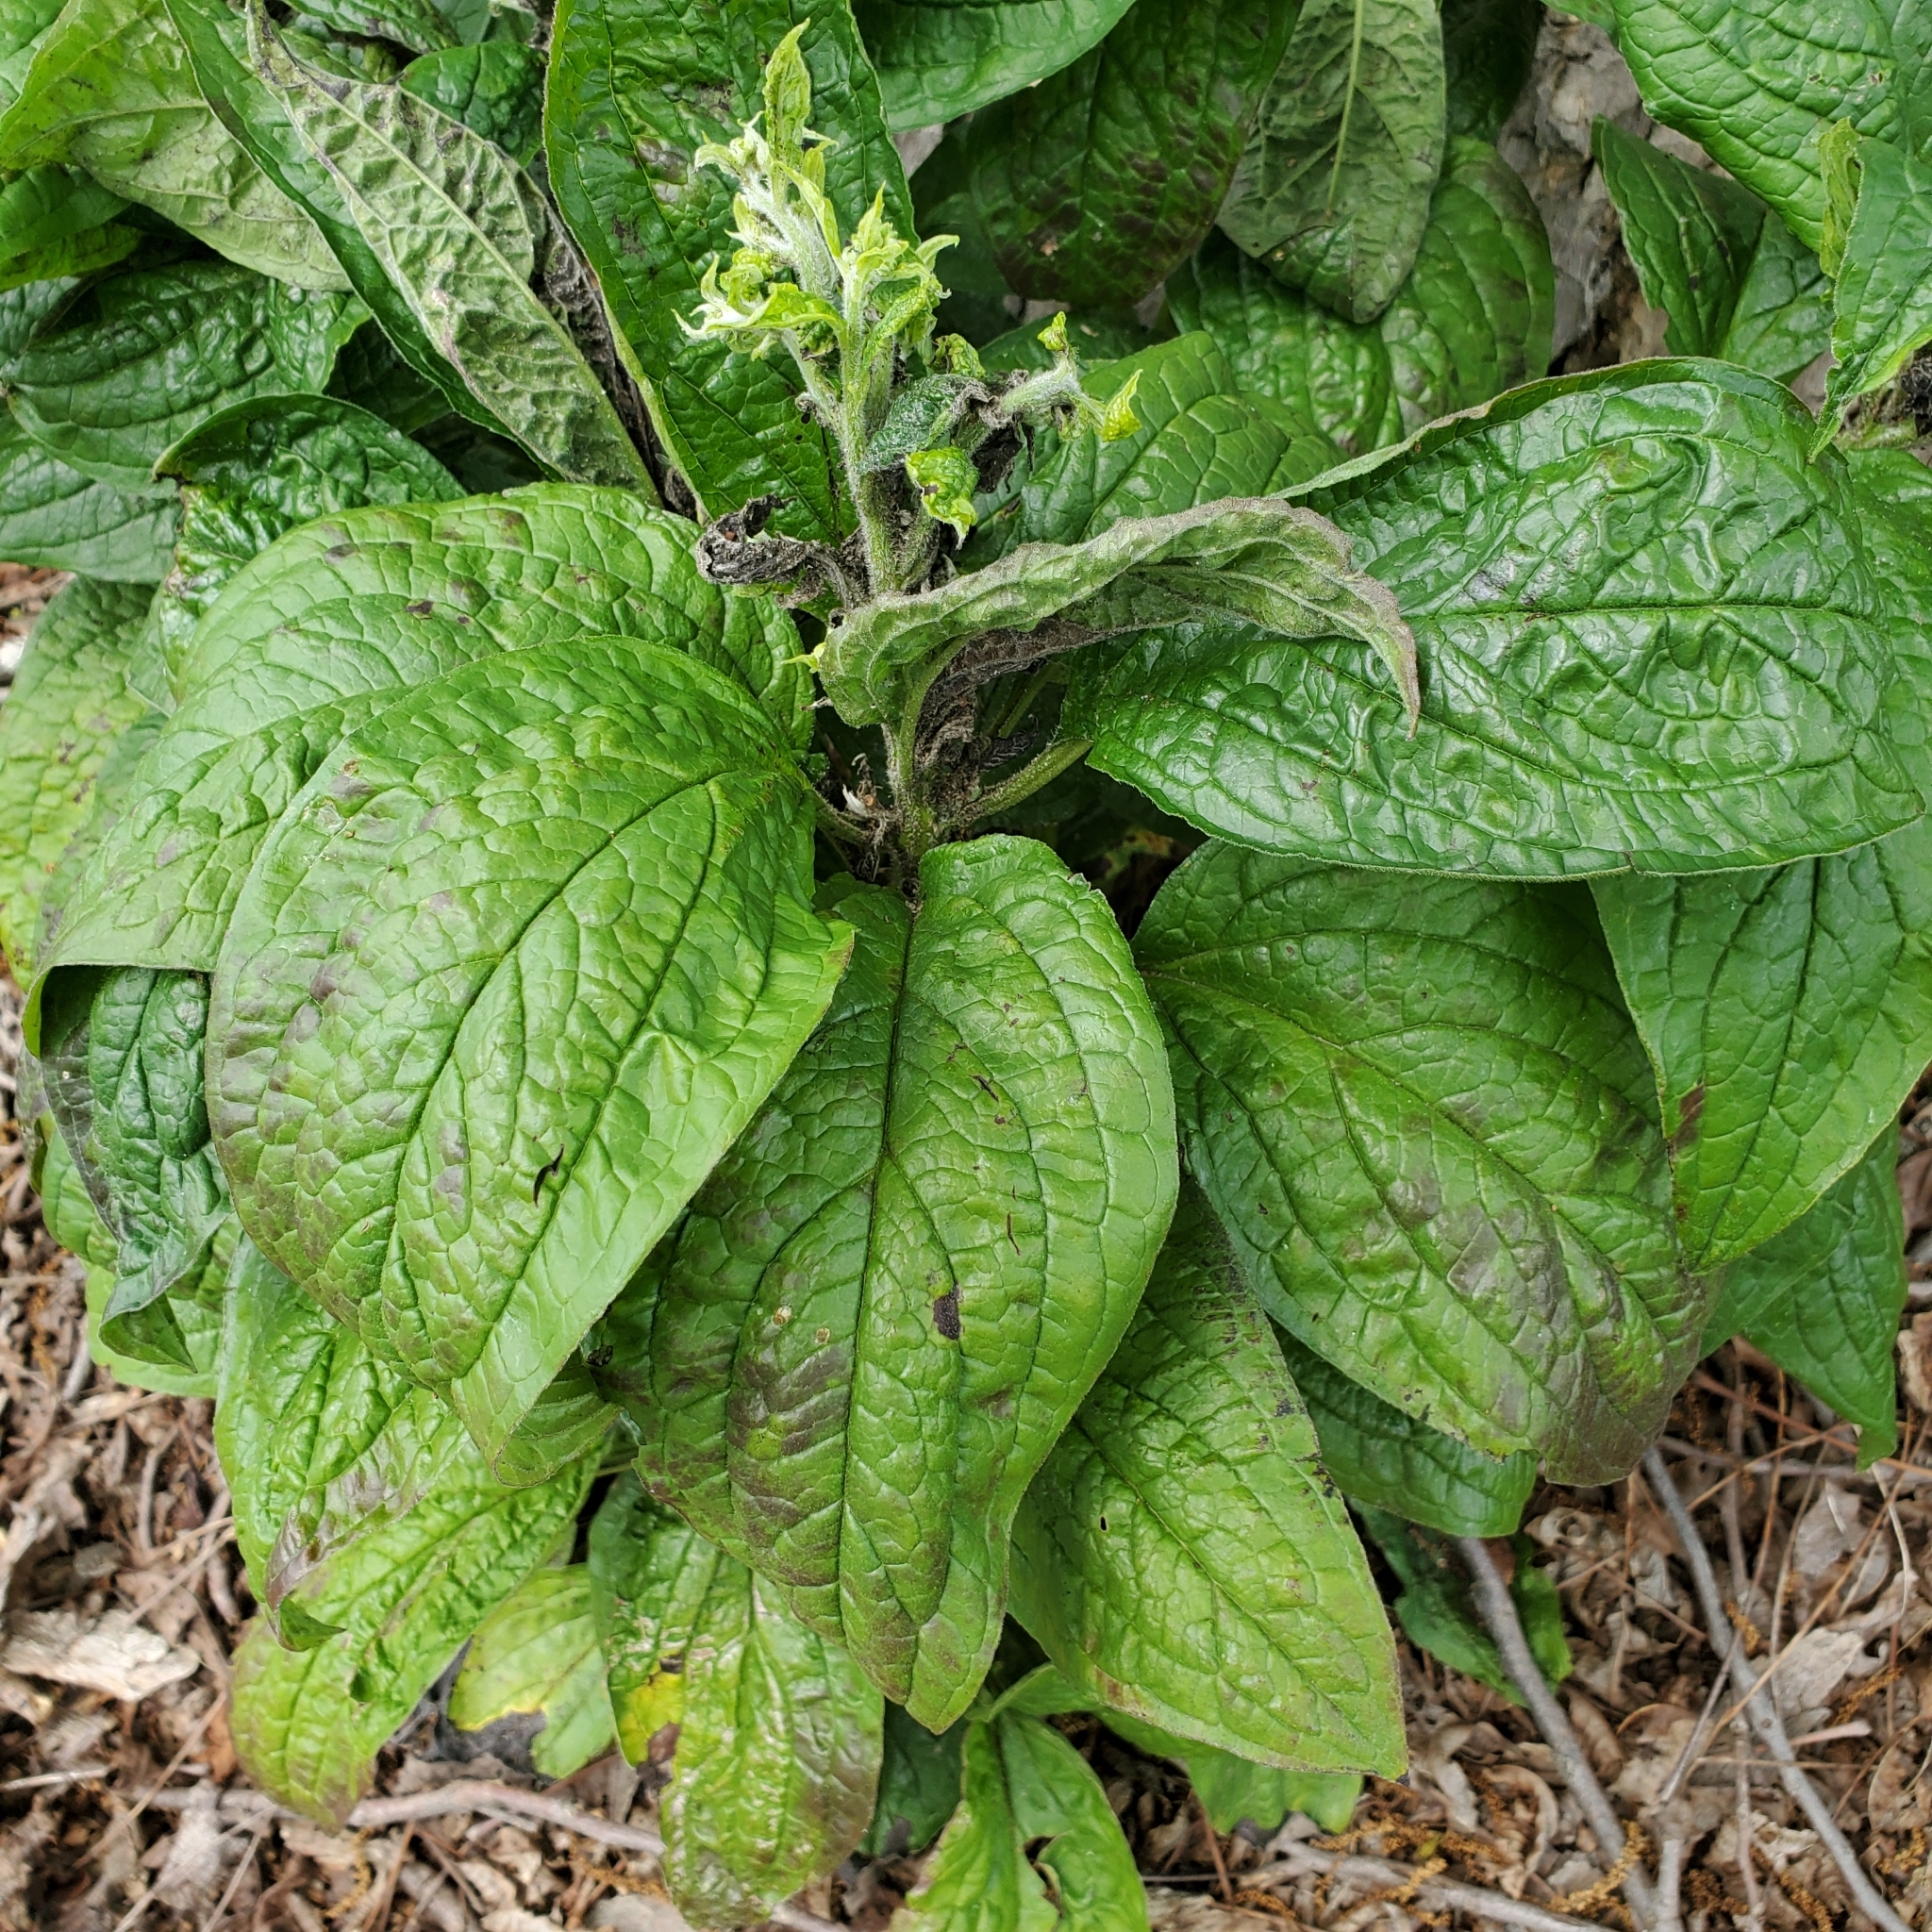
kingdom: Plantae
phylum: Tracheophyta
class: Magnoliopsida
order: Boraginales
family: Boraginaceae
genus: Hackelia
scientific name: Hackelia virginiana
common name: Beggar's-lice
